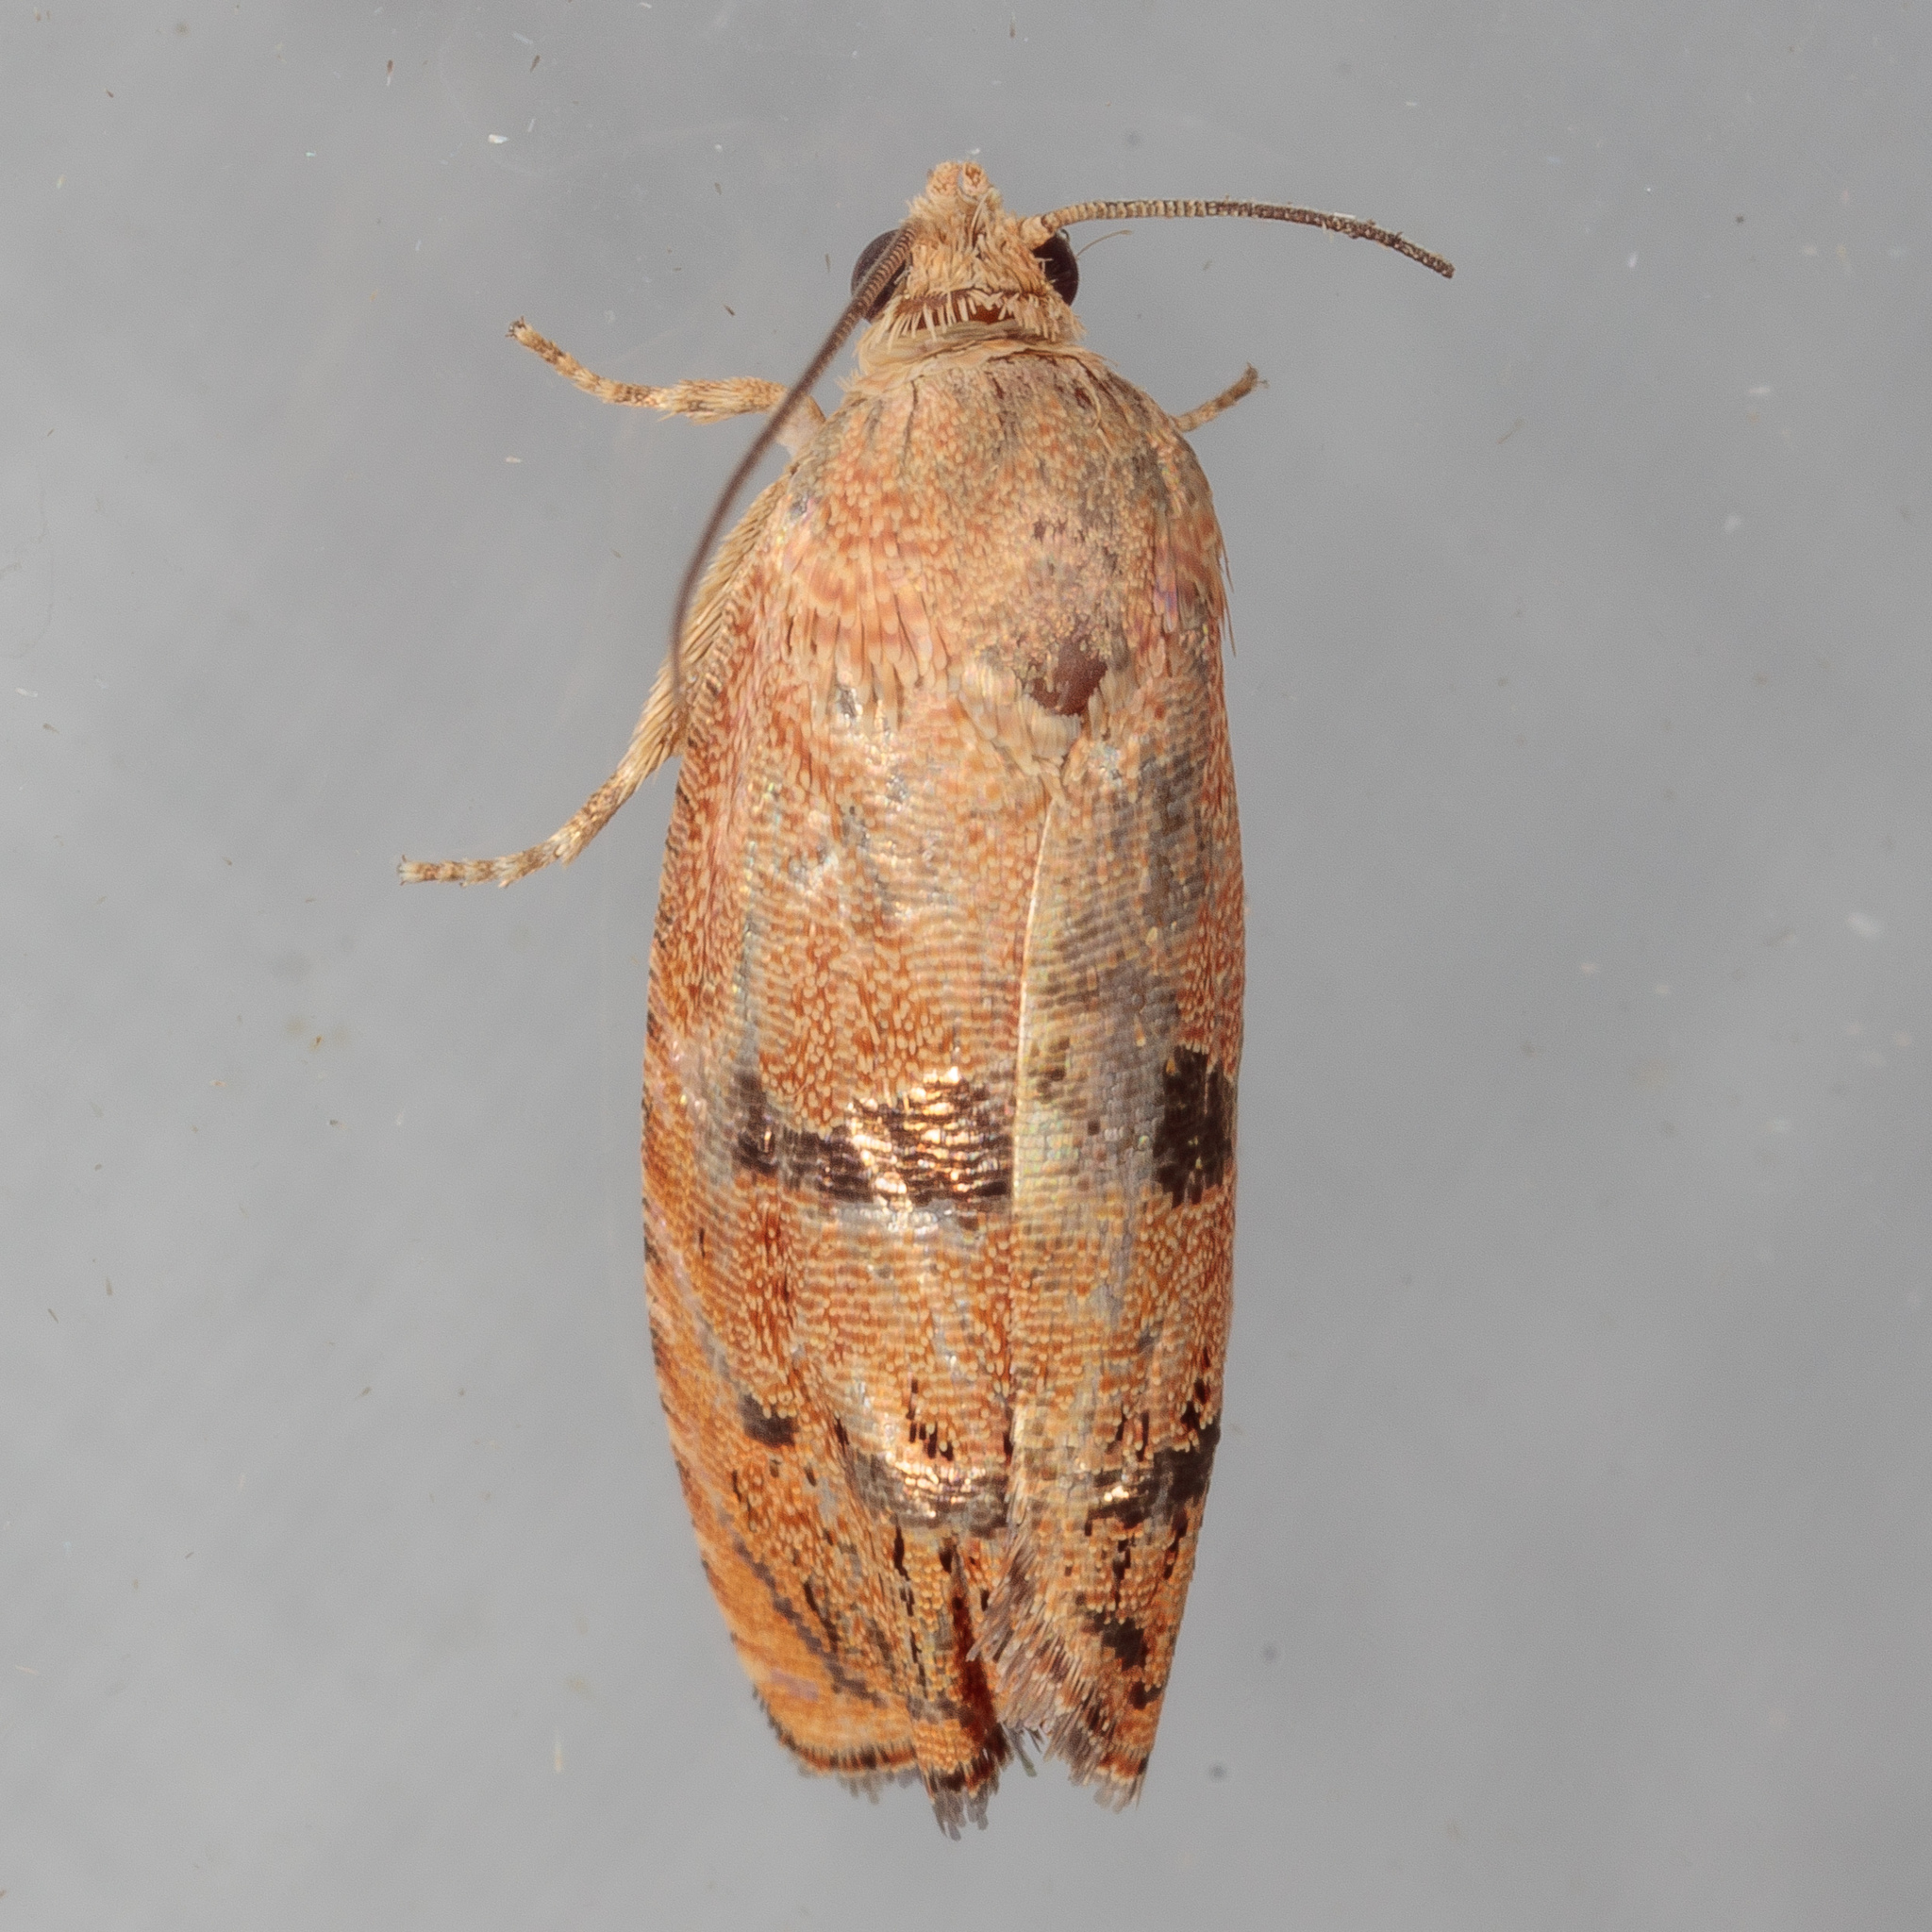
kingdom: Animalia
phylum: Arthropoda
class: Insecta
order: Lepidoptera
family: Tortricidae
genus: Cydia
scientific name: Cydia latiferreana
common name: Filbertworm moth
